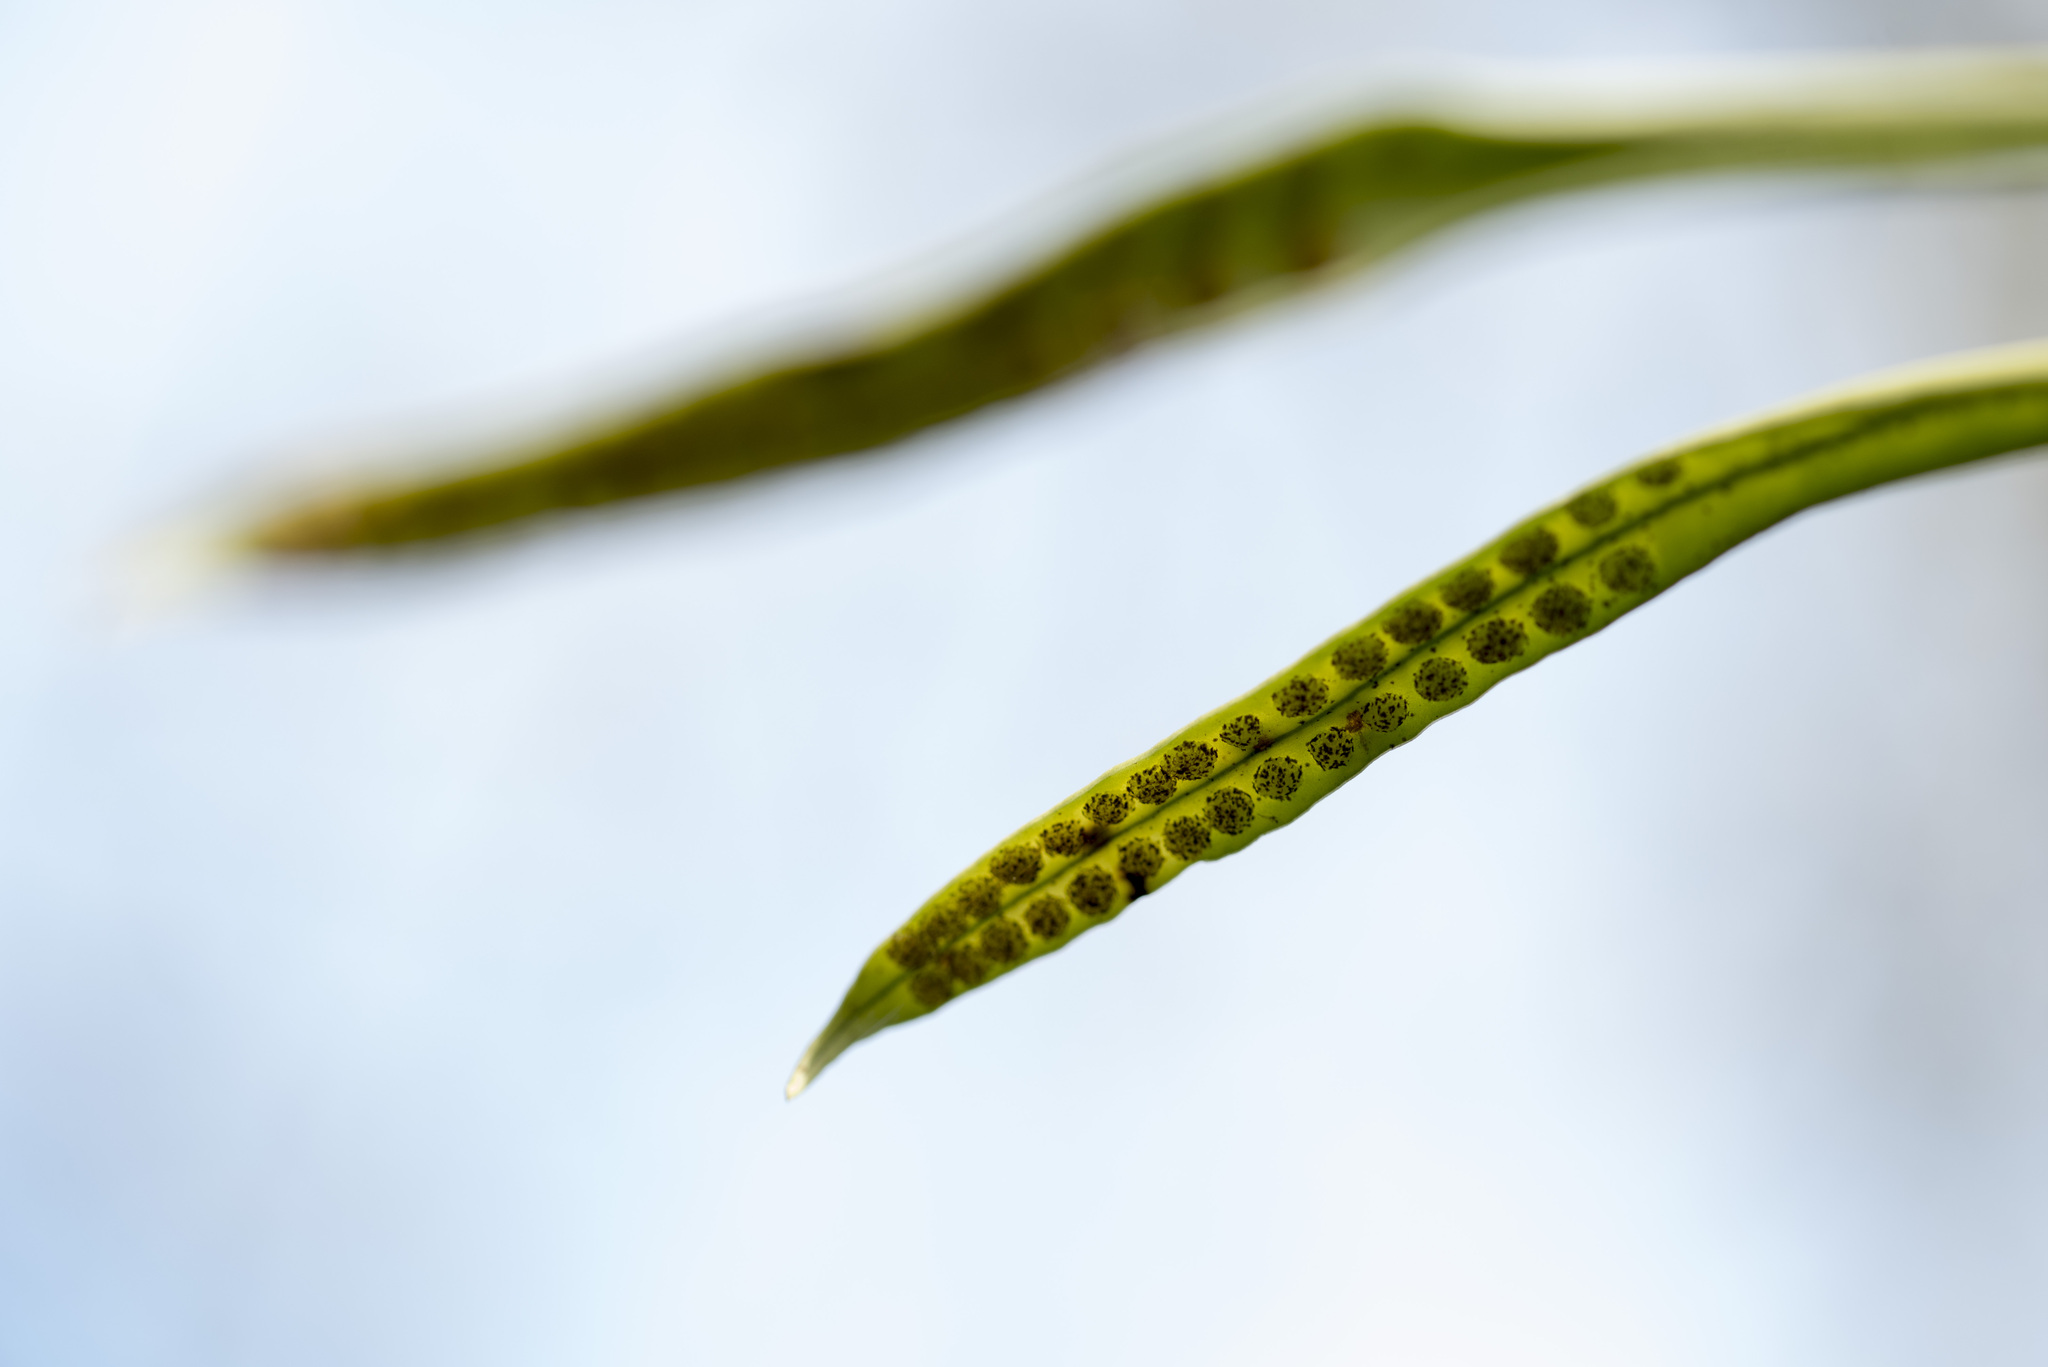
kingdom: Plantae
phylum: Tracheophyta
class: Polypodiopsida
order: Polypodiales
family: Polypodiaceae
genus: Lepisorus
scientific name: Lepisorus thunbergianus
